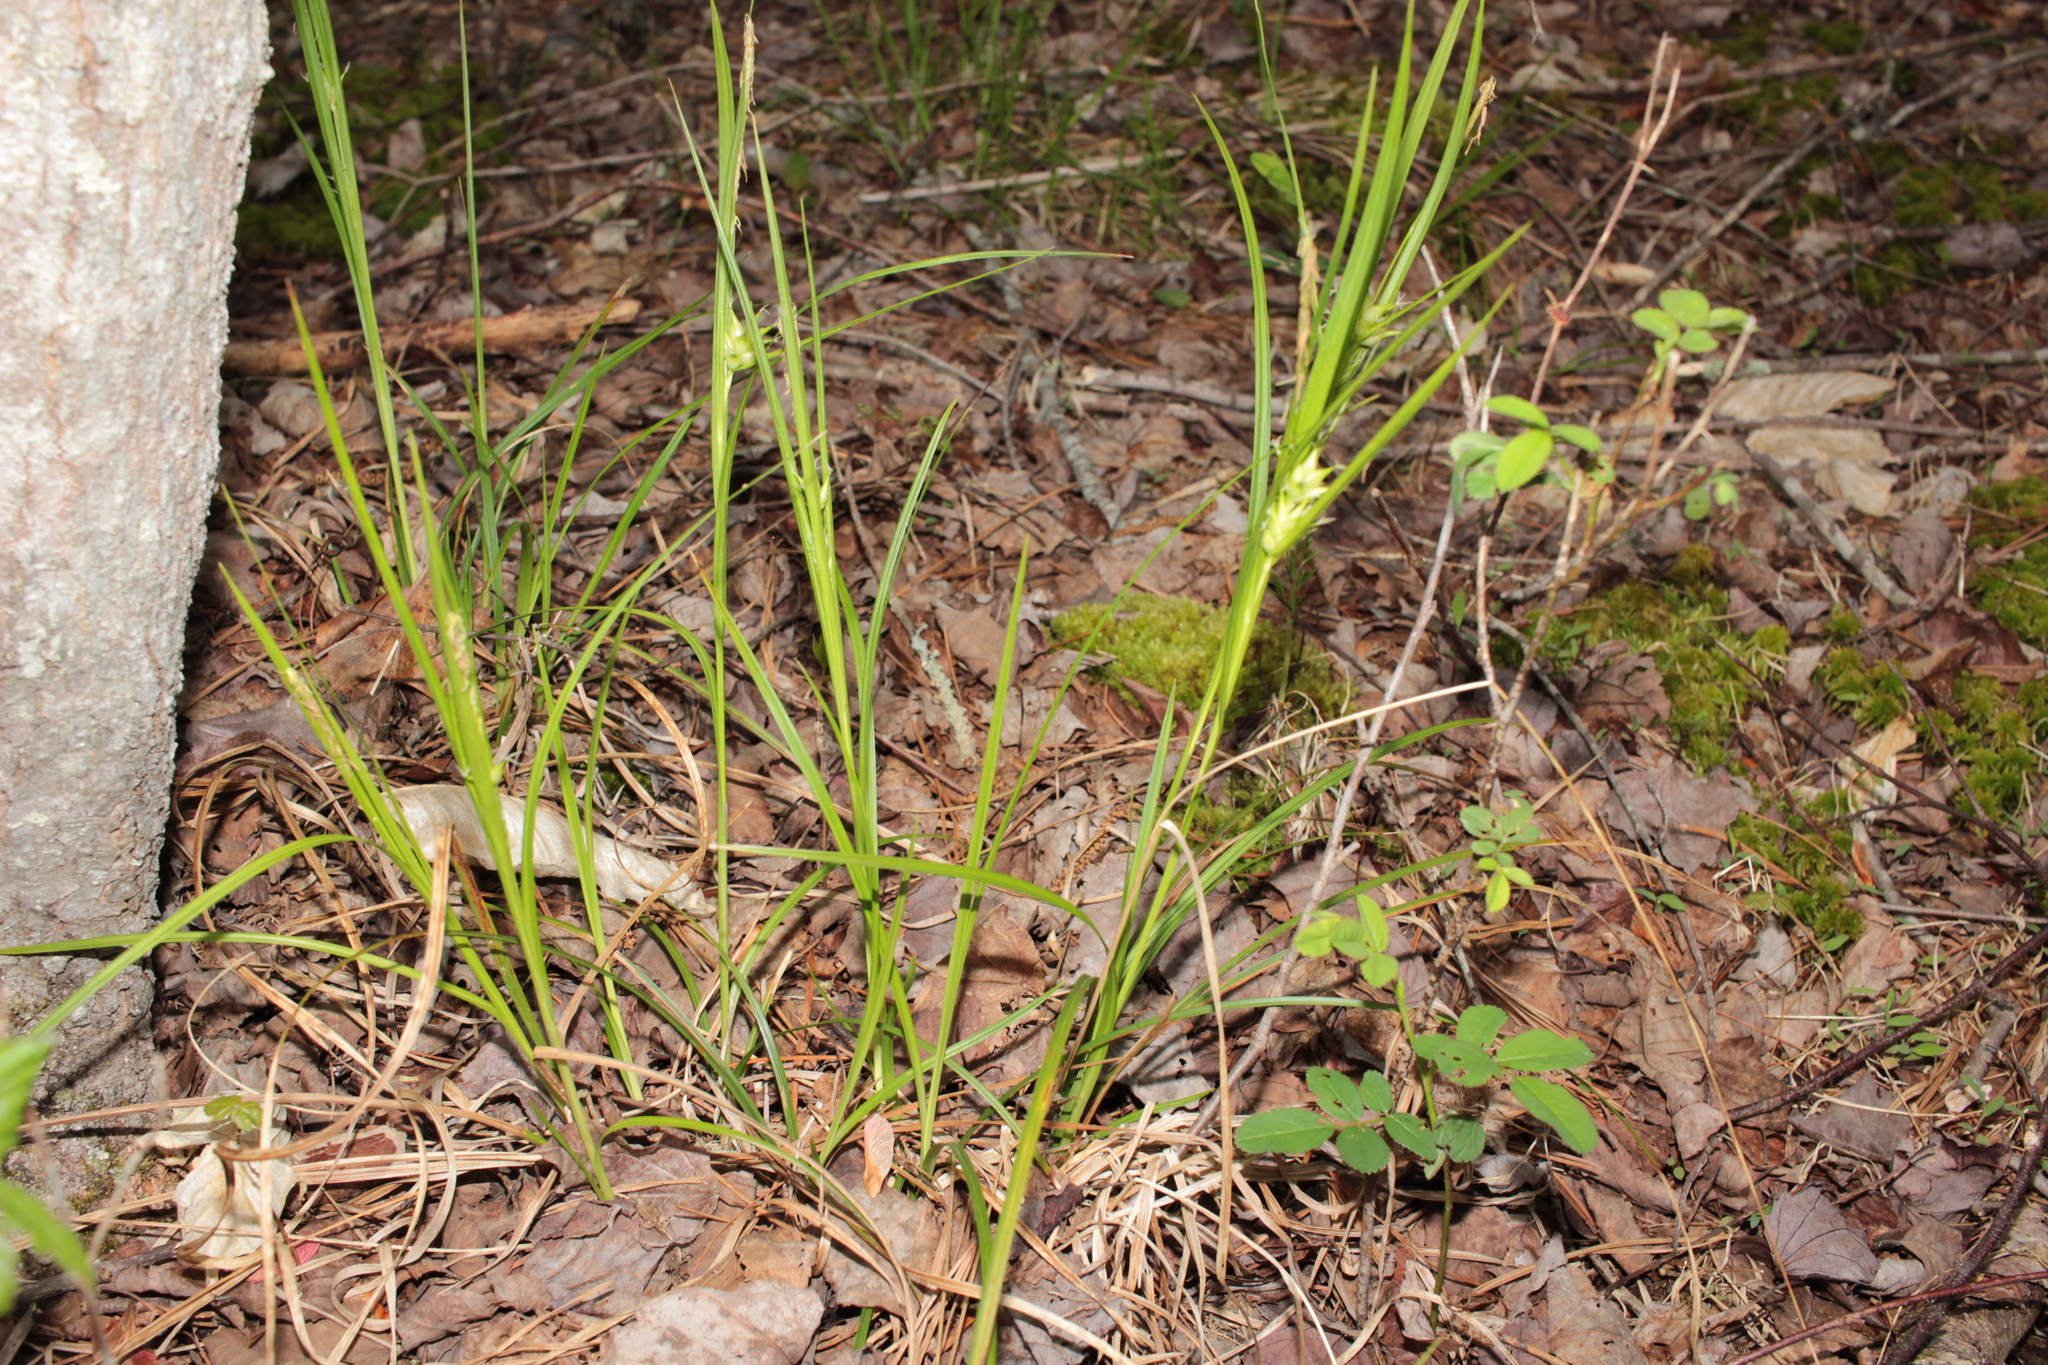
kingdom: Plantae
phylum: Tracheophyta
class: Liliopsida
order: Poales
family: Cyperaceae
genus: Carex
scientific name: Carex intumescens
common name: Greater bladder sedge
